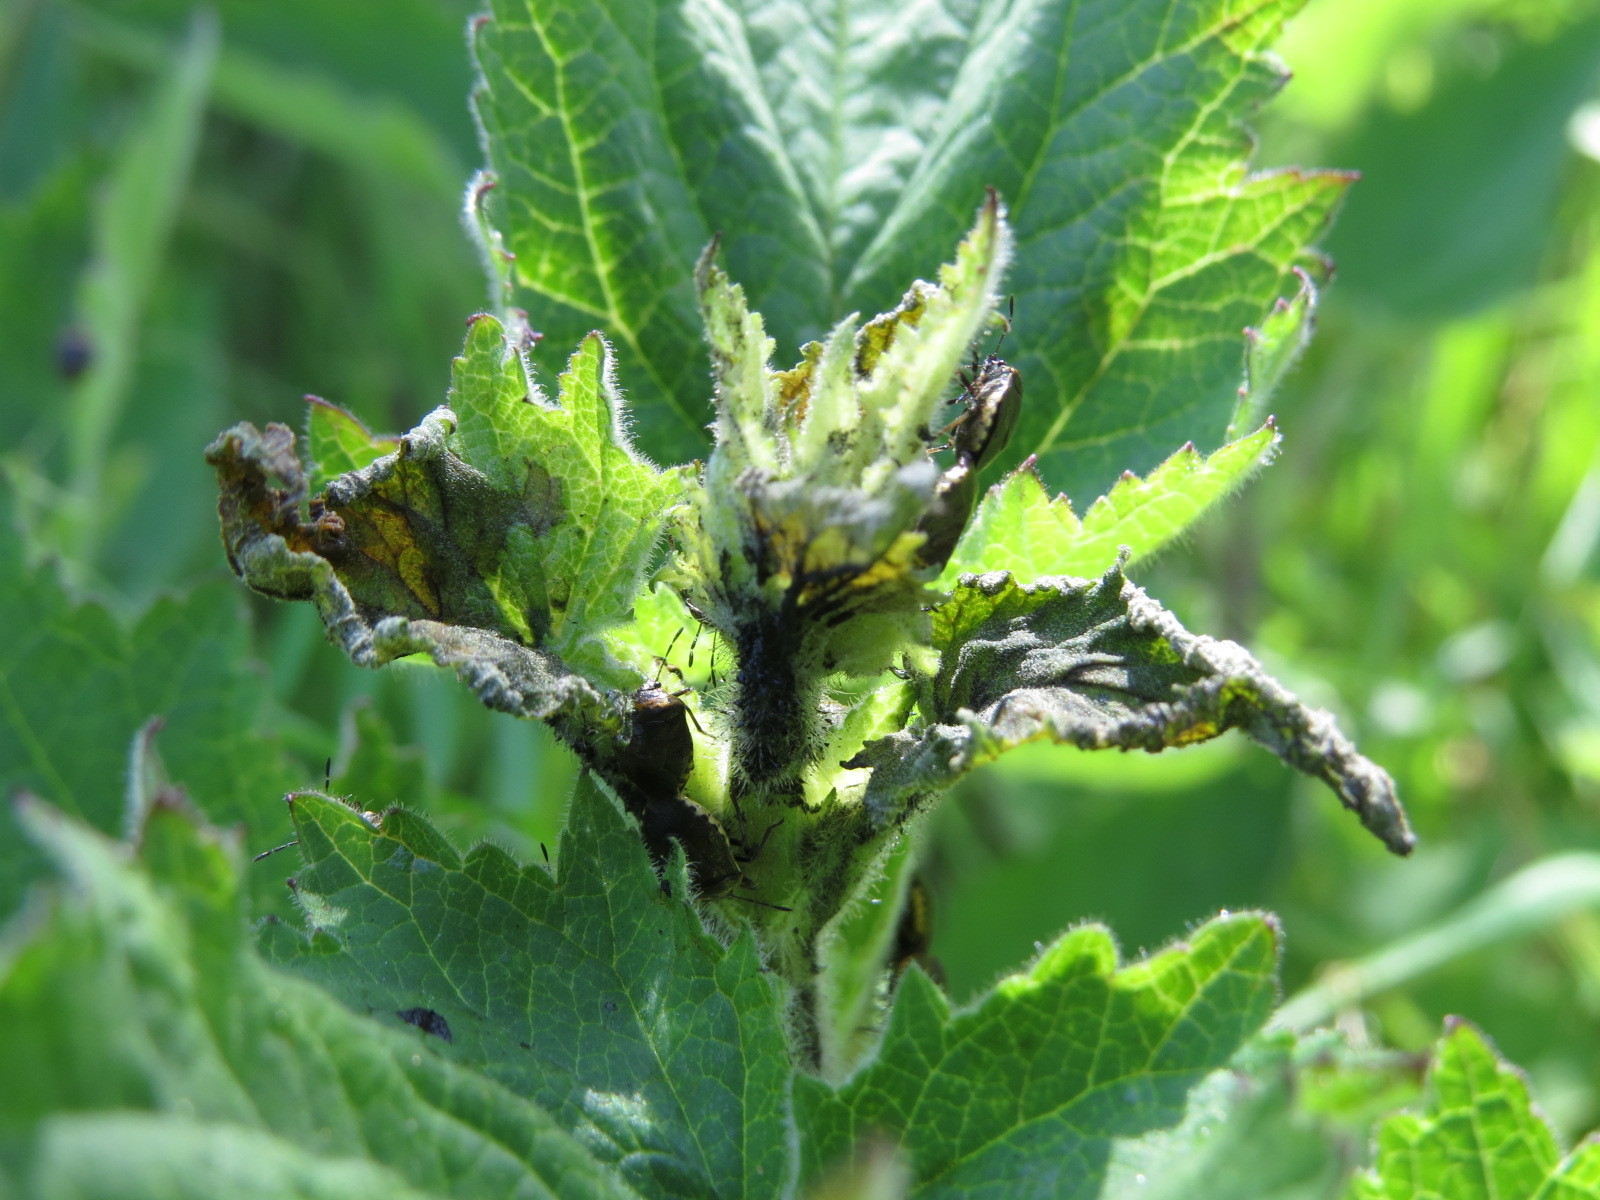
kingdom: Animalia
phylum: Arthropoda
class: Insecta
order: Hemiptera
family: Pentatomidae
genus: Cosmopepla
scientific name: Cosmopepla uhleri
